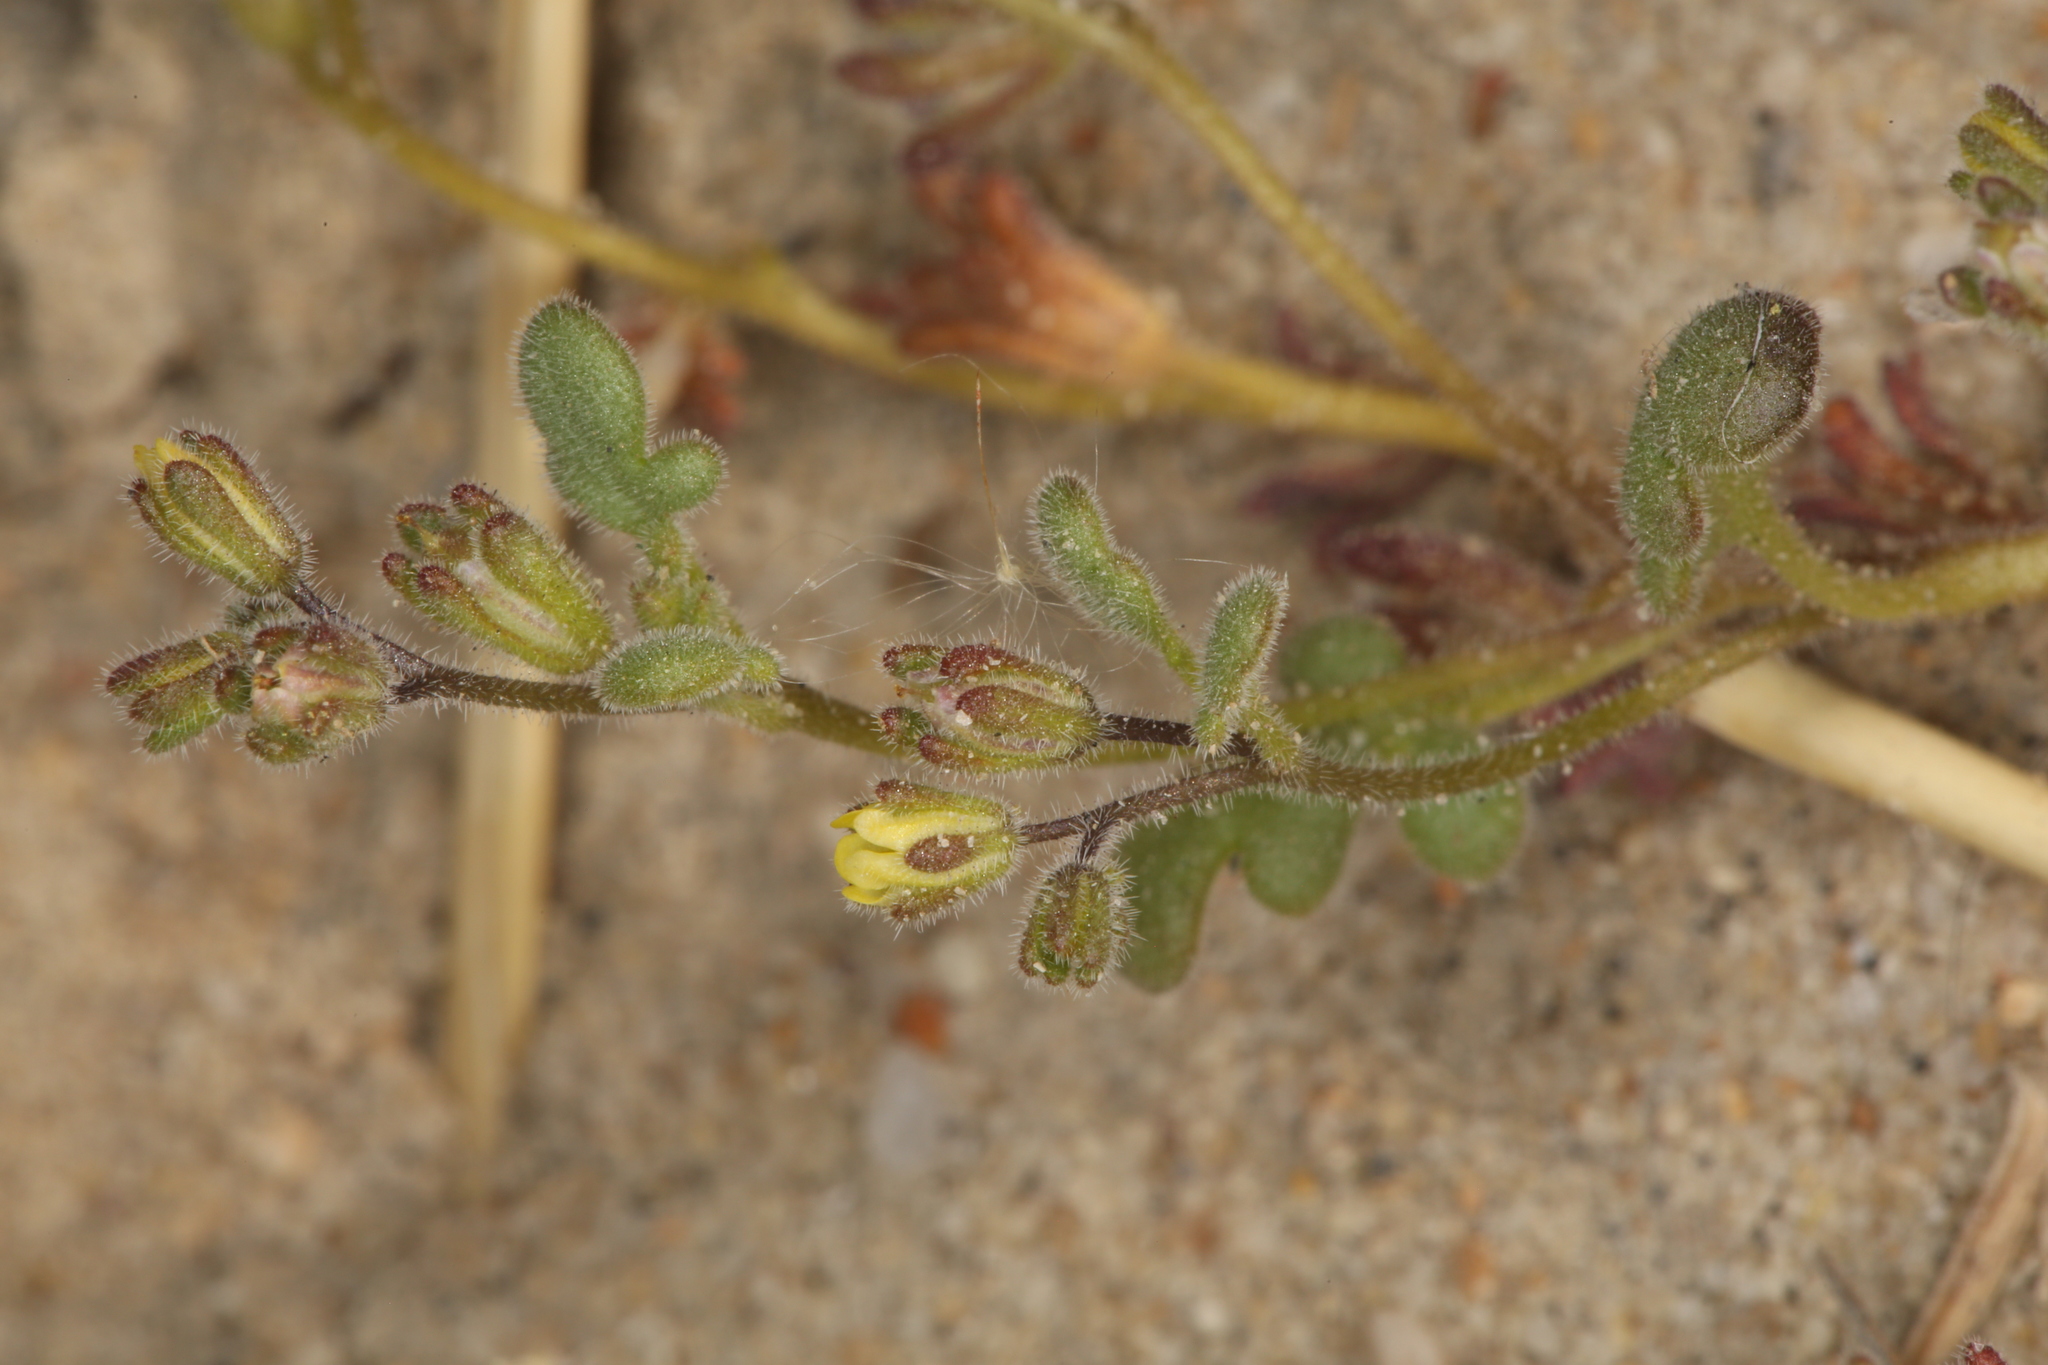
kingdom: Plantae
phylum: Tracheophyta
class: Magnoliopsida
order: Boraginales
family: Hydrophyllaceae
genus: Phacelia
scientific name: Phacelia inyoensis
